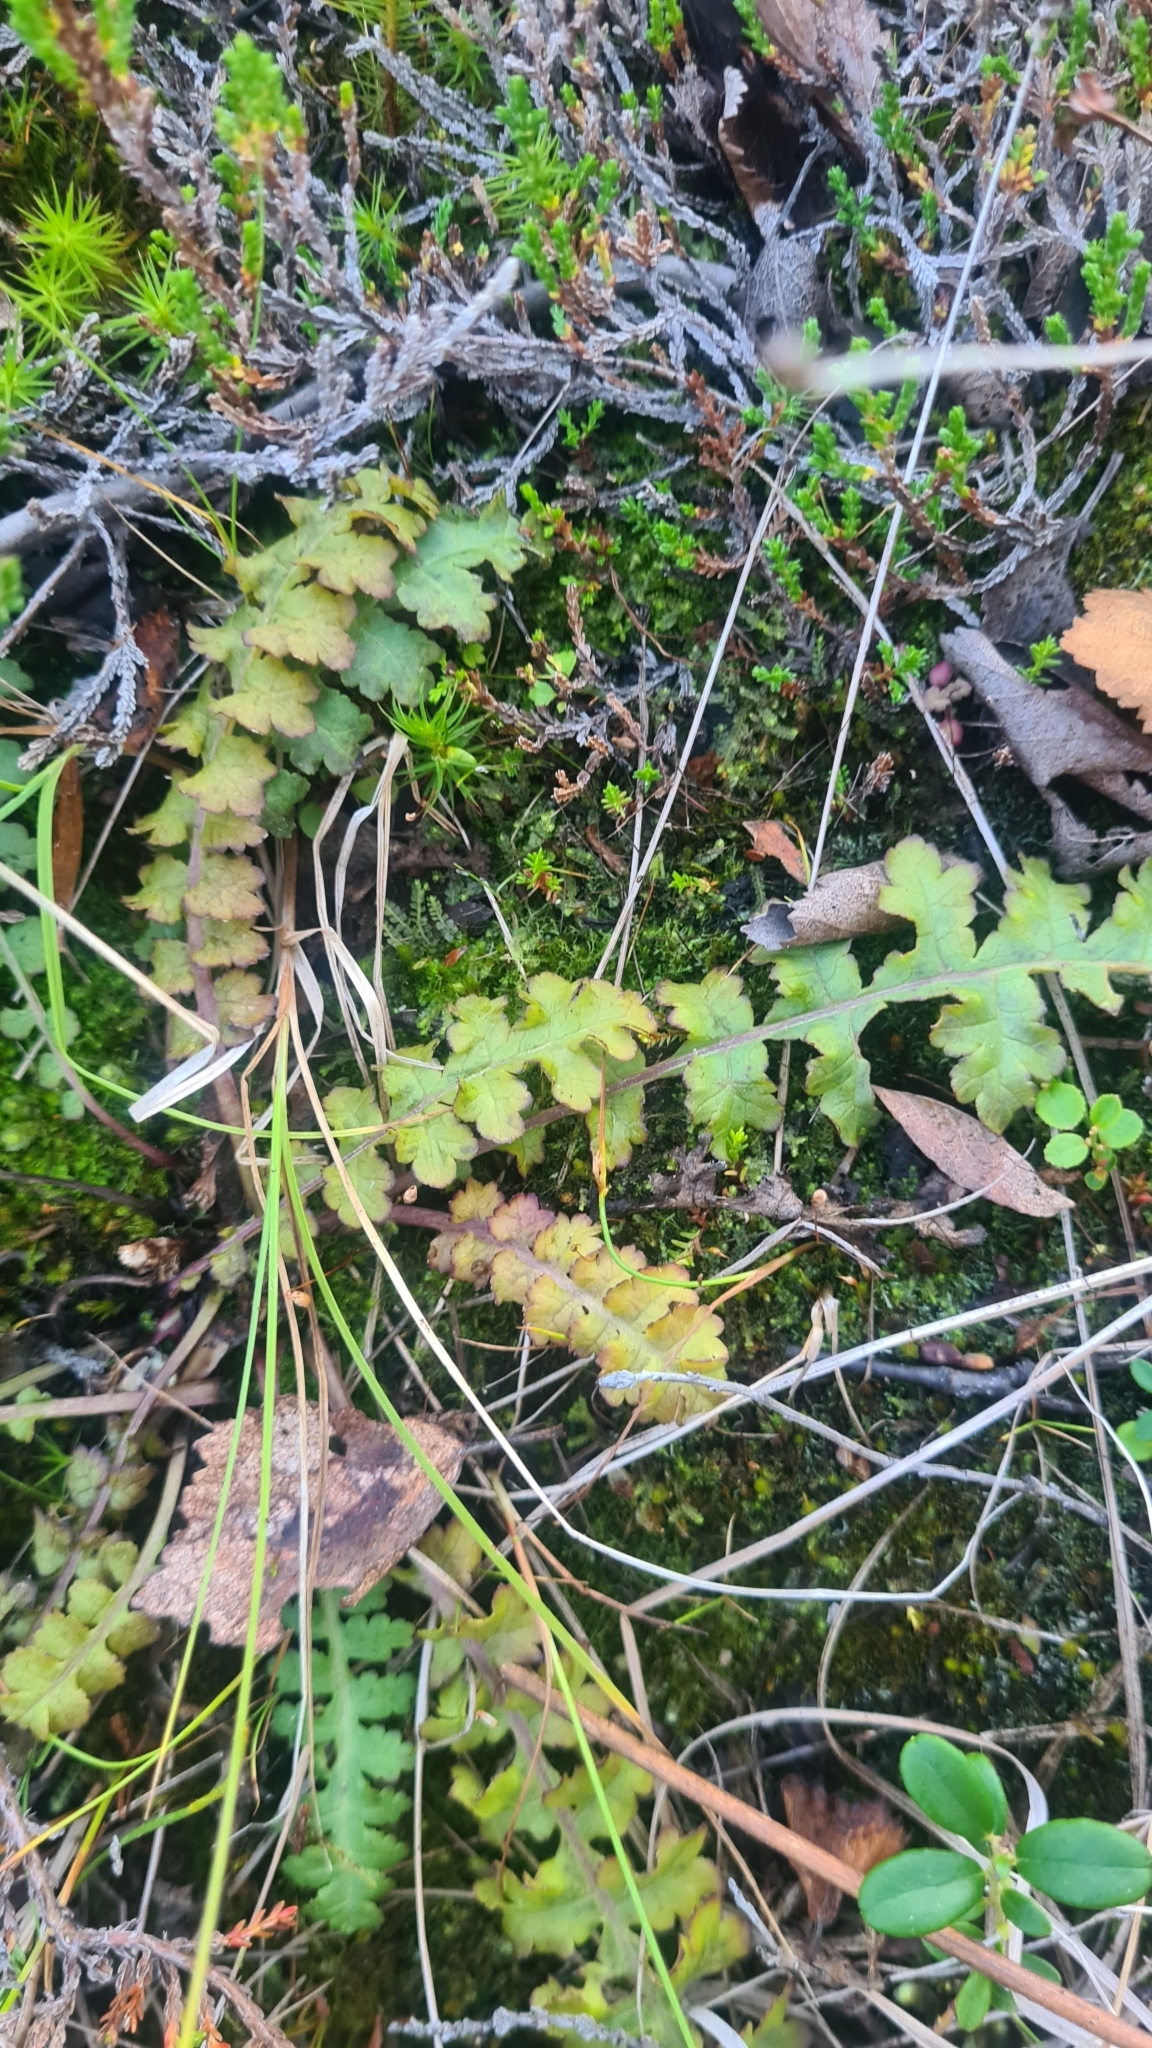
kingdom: Plantae
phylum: Tracheophyta
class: Magnoliopsida
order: Lamiales
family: Orobanchaceae
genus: Pedicularis
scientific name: Pedicularis sceptrum-carolinum
